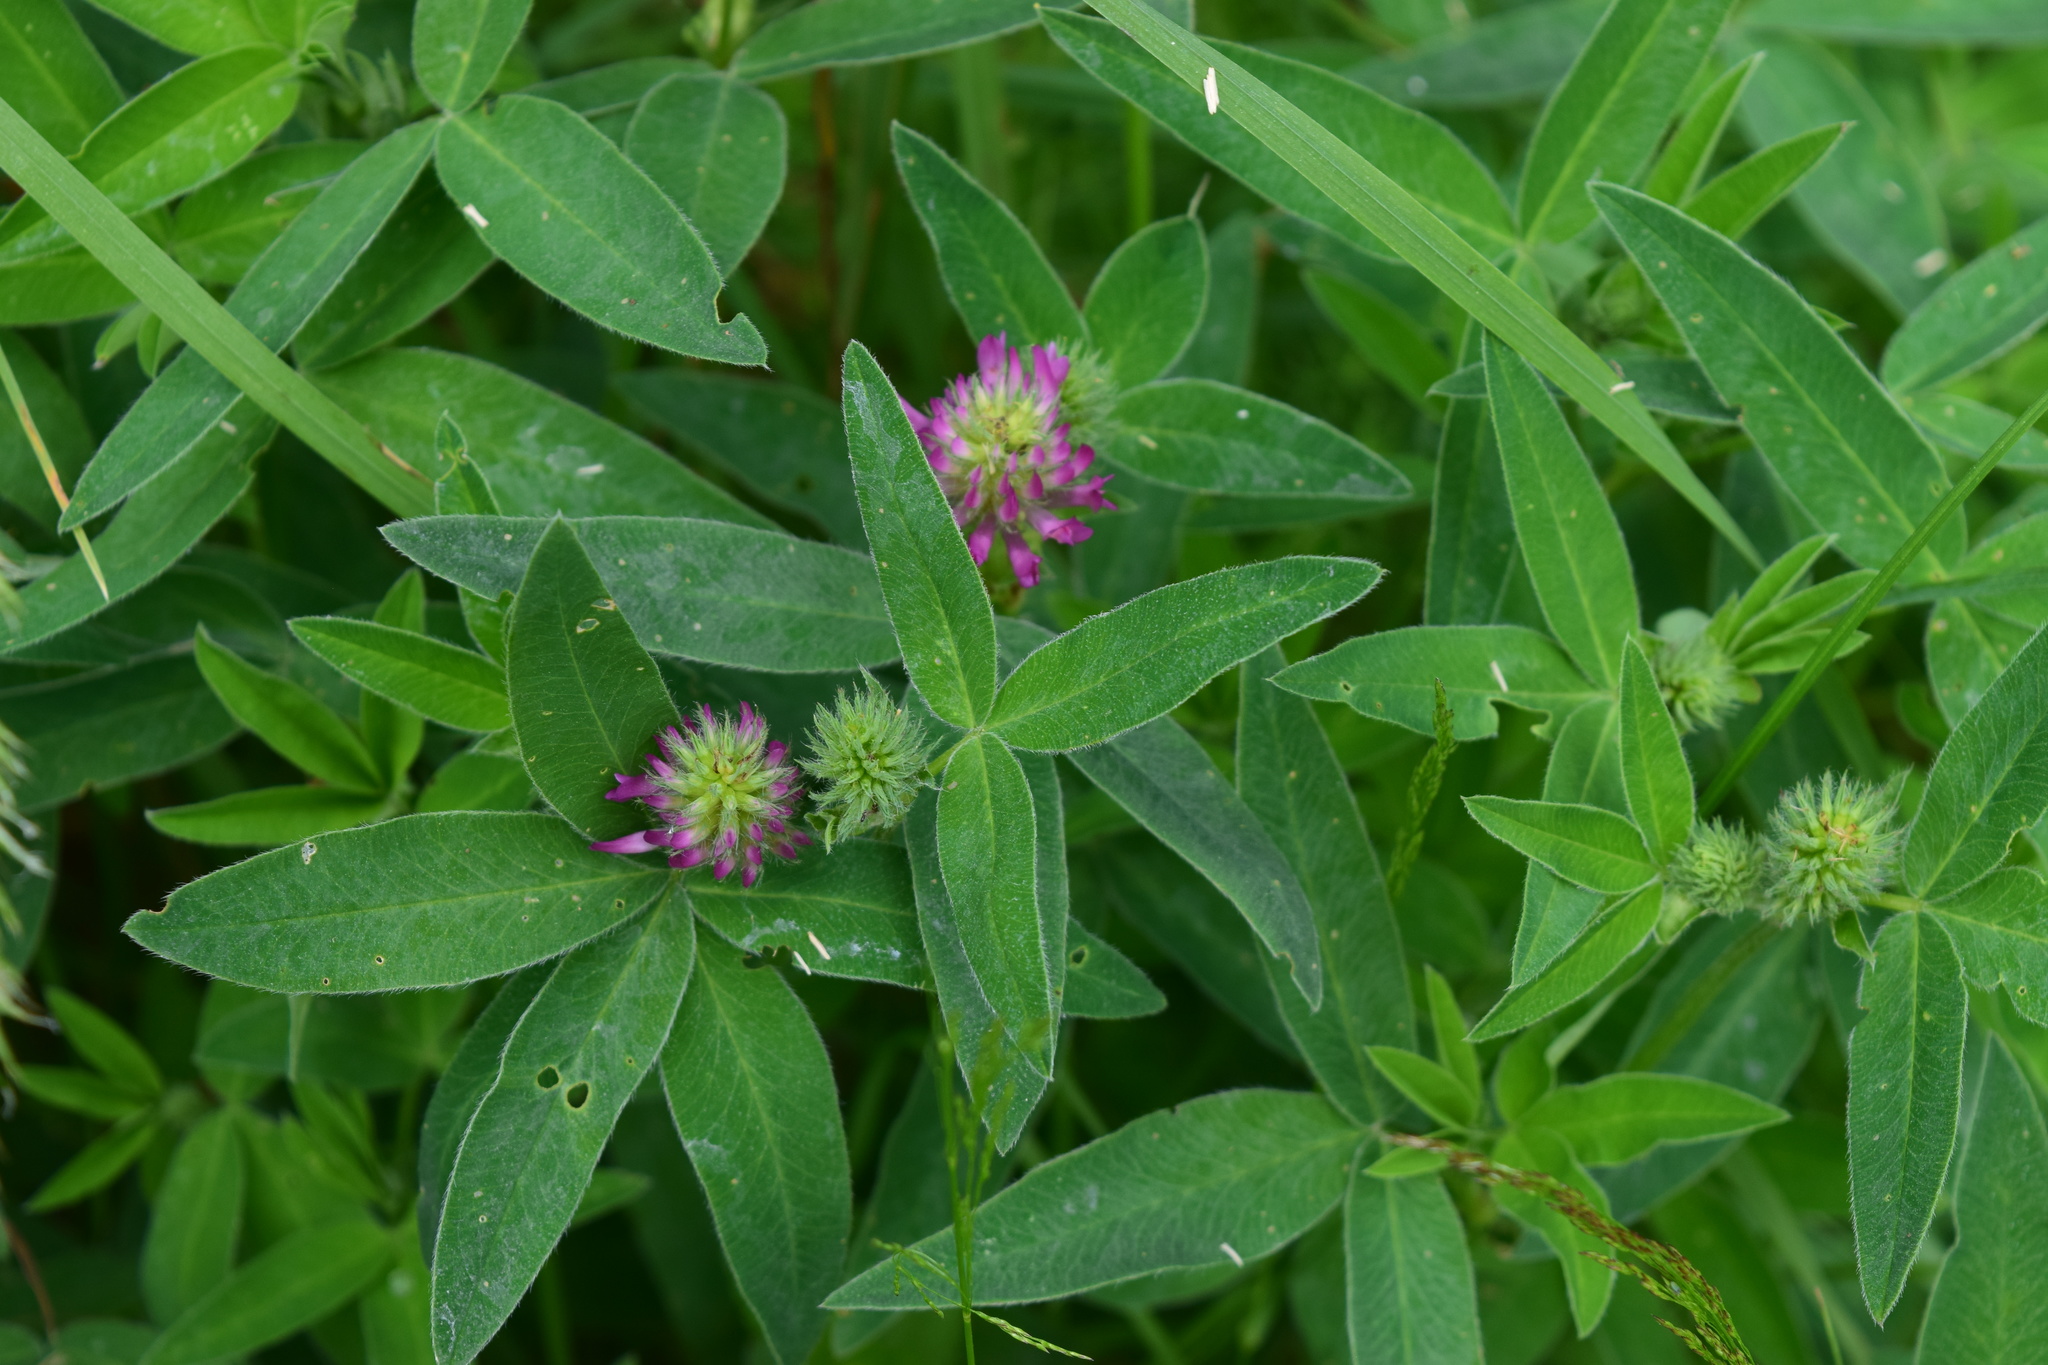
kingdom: Plantae
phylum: Tracheophyta
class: Magnoliopsida
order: Fabales
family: Fabaceae
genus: Trifolium
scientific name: Trifolium medium
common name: Zigzag clover
